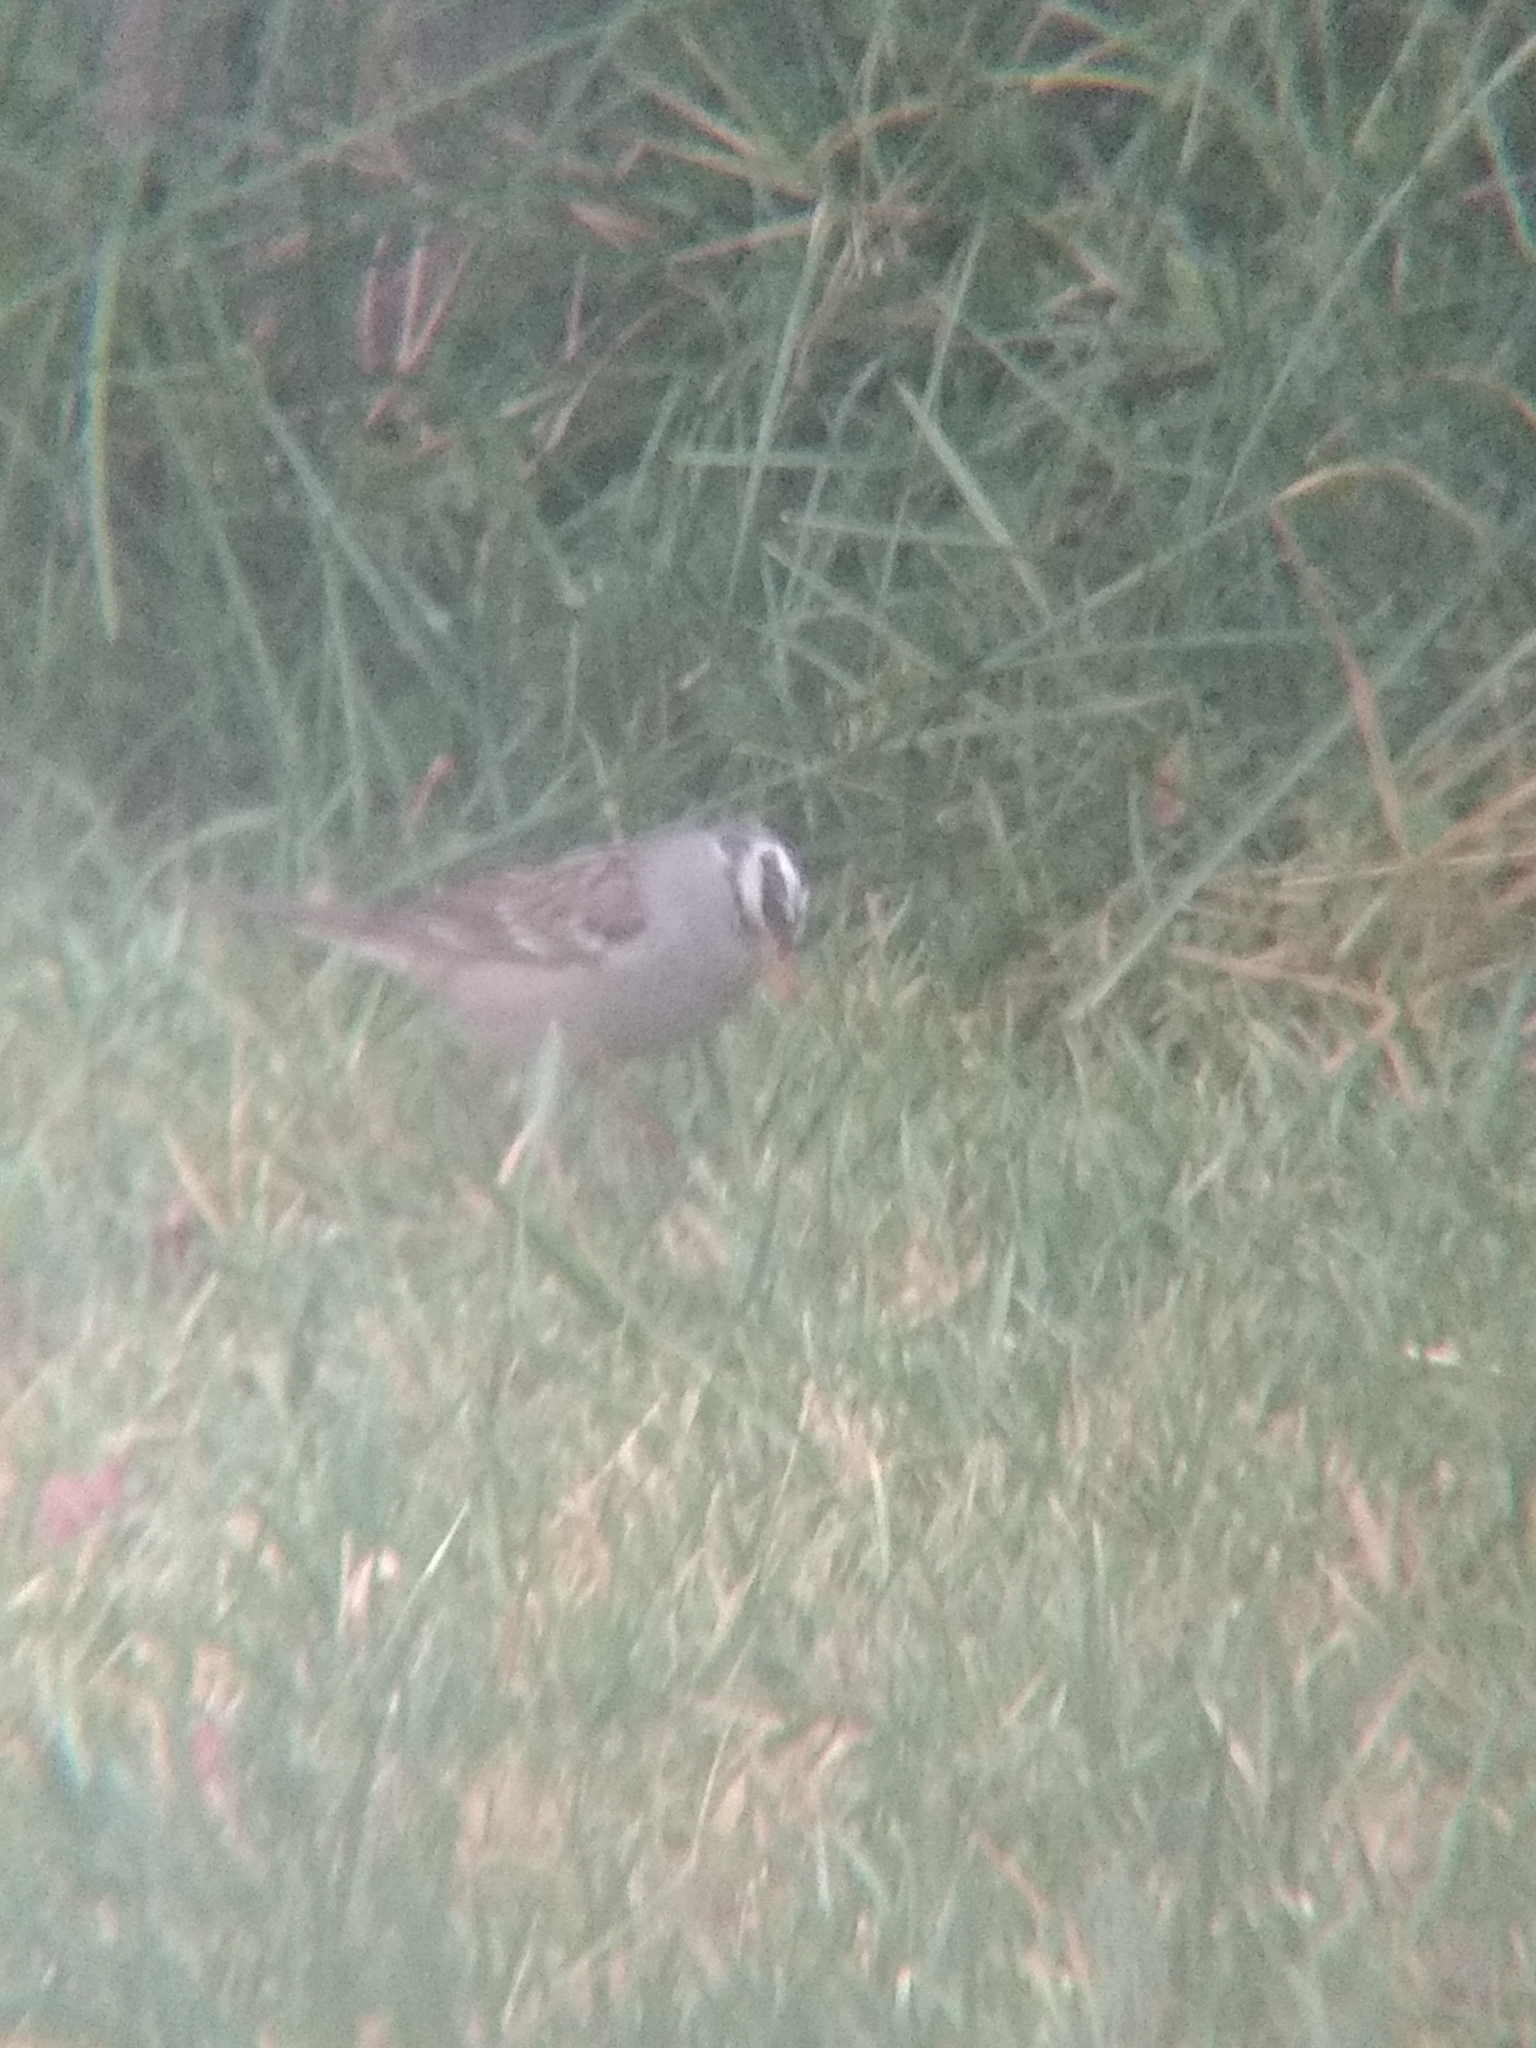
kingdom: Animalia
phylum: Chordata
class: Aves
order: Passeriformes
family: Passerellidae
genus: Zonotrichia
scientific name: Zonotrichia leucophrys
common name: White-crowned sparrow
